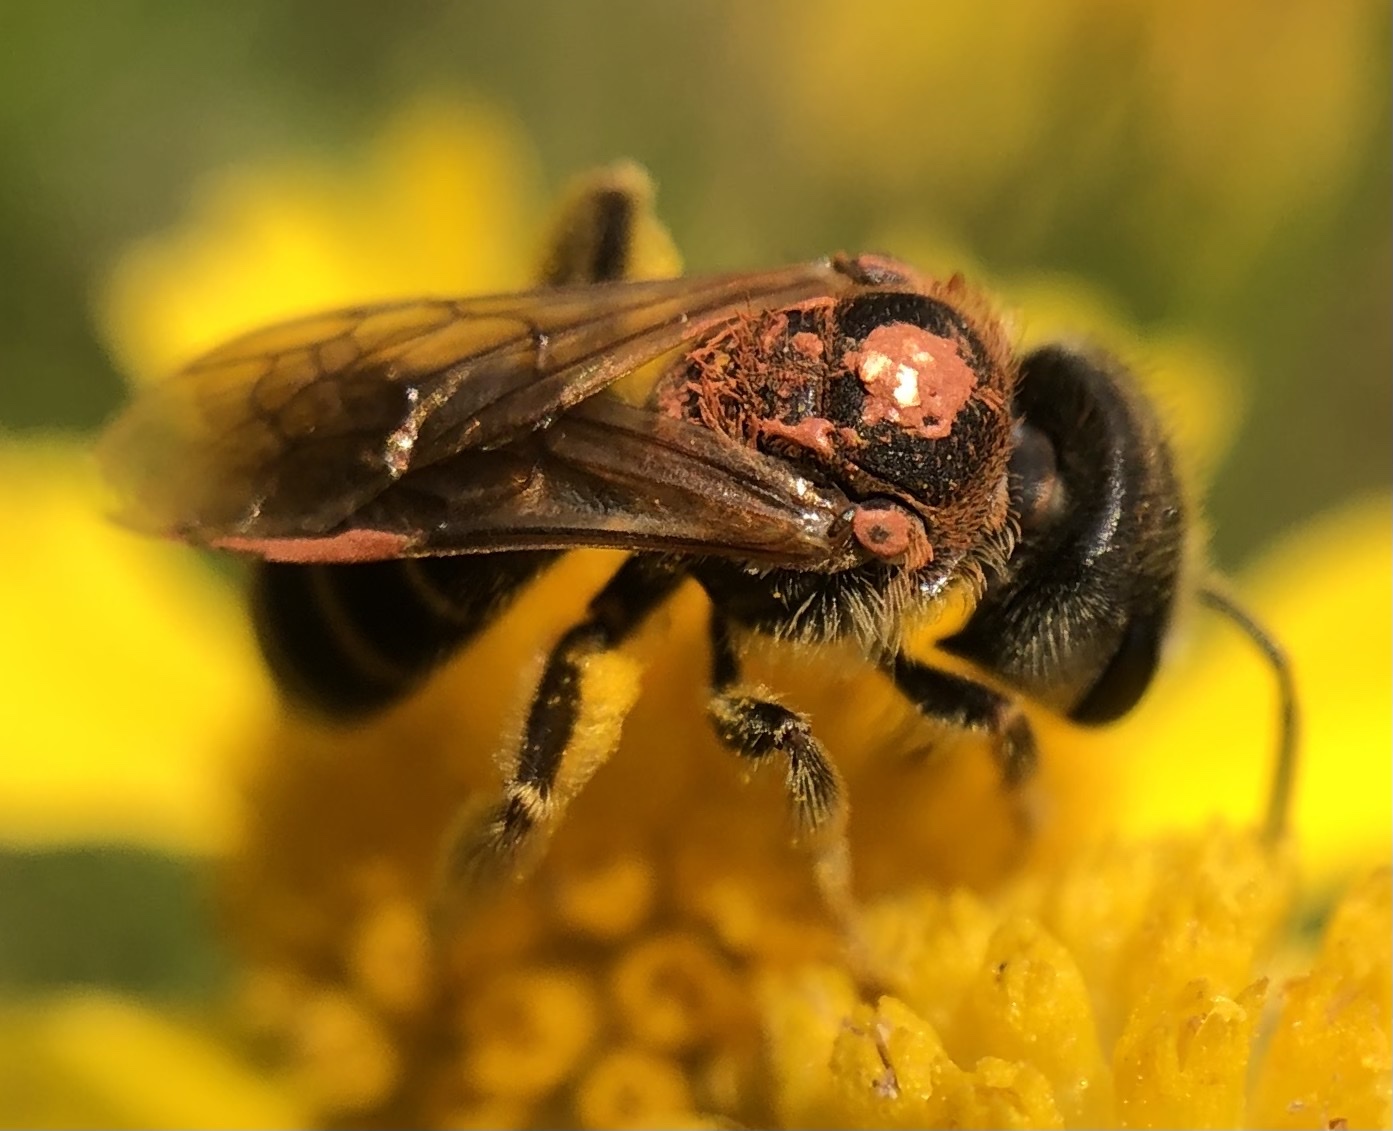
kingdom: Animalia
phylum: Arthropoda
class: Insecta
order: Hymenoptera
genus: Odontalictus
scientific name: Odontalictus
